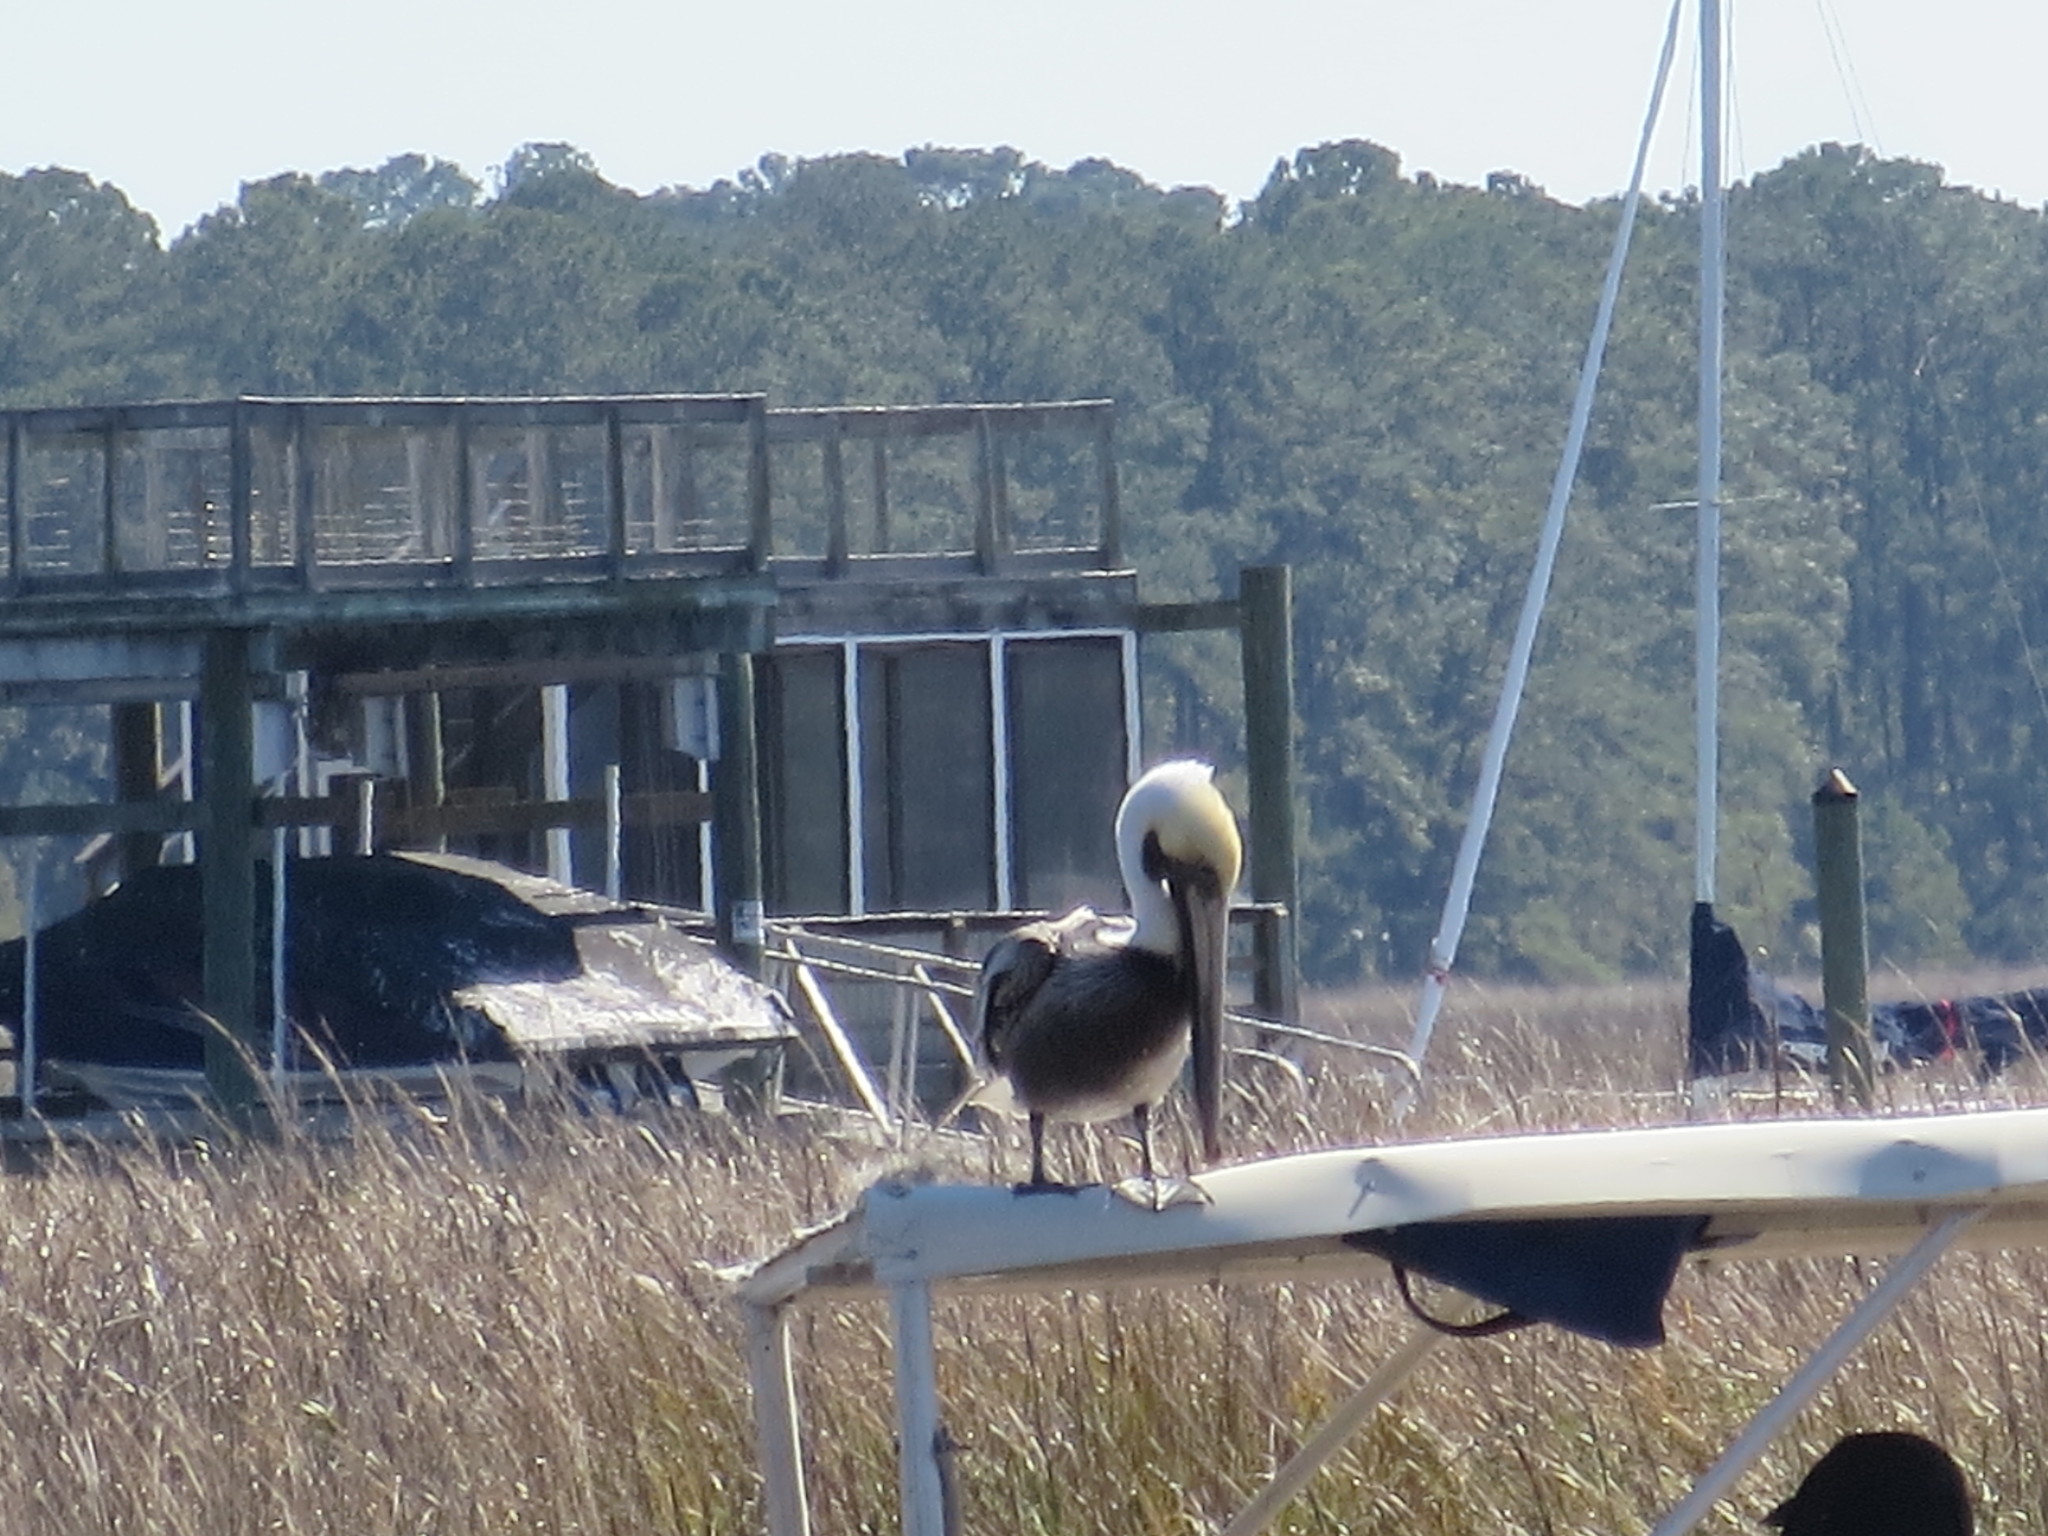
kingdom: Animalia
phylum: Chordata
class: Aves
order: Pelecaniformes
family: Pelecanidae
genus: Pelecanus
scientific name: Pelecanus occidentalis
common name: Brown pelican
